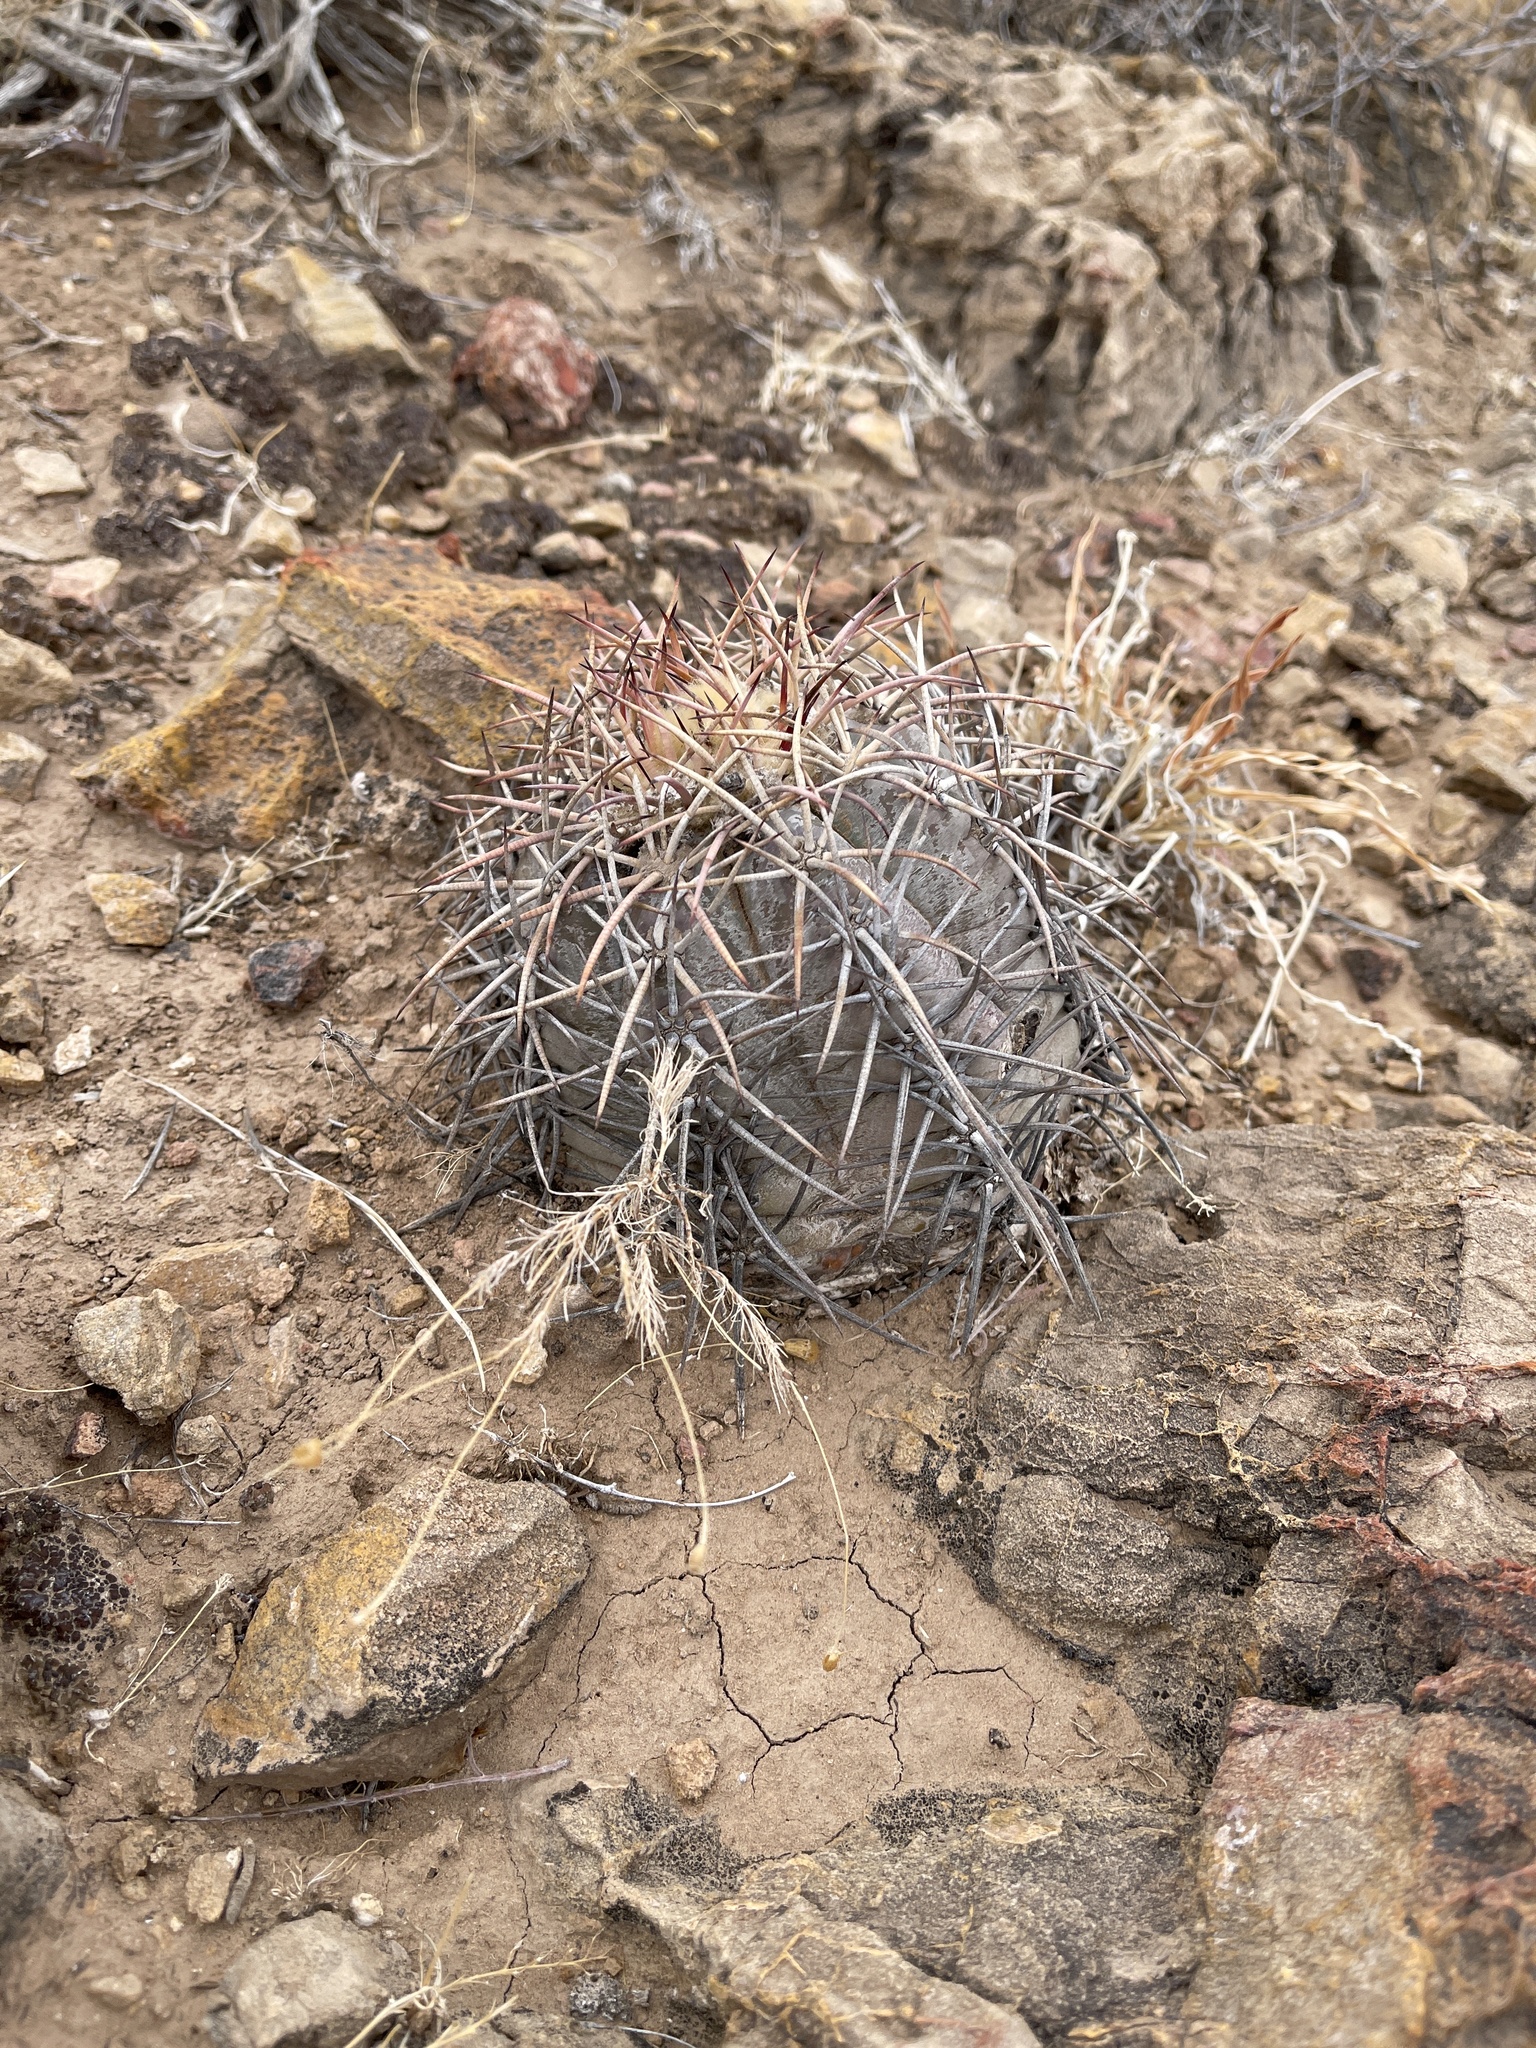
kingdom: Plantae
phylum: Tracheophyta
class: Magnoliopsida
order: Caryophyllales
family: Cactaceae
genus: Echinocactus
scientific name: Echinocactus horizonthalonius
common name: Devilshead
